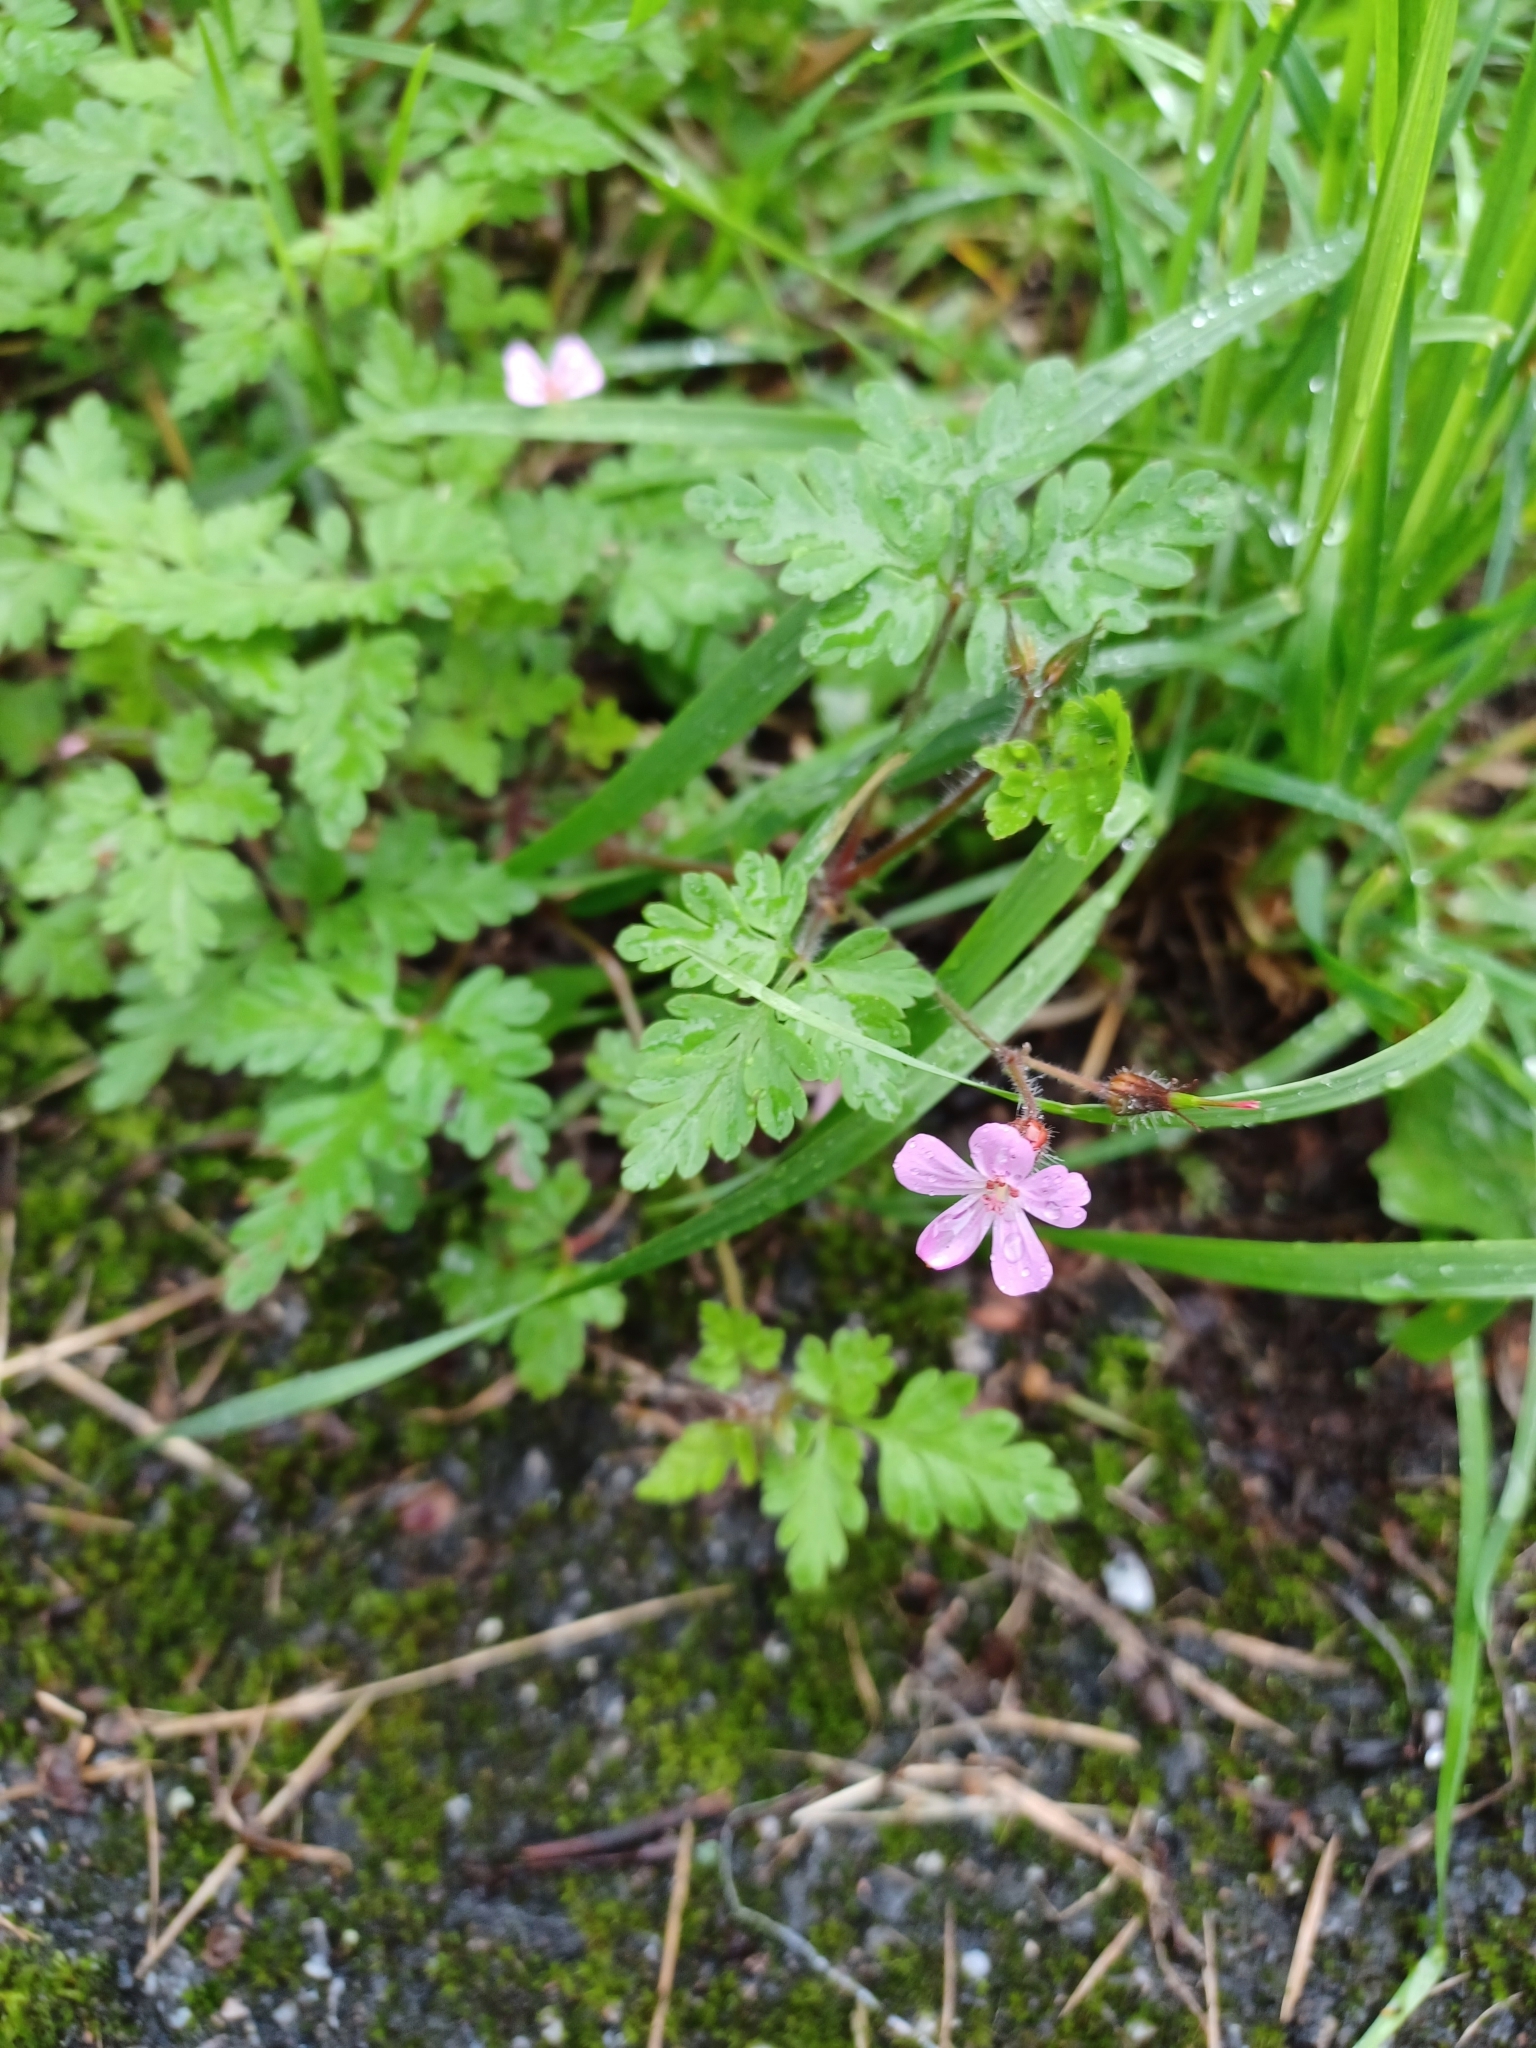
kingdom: Plantae
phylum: Tracheophyta
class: Magnoliopsida
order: Geraniales
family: Geraniaceae
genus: Geranium
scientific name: Geranium robertianum
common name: Herb-robert
